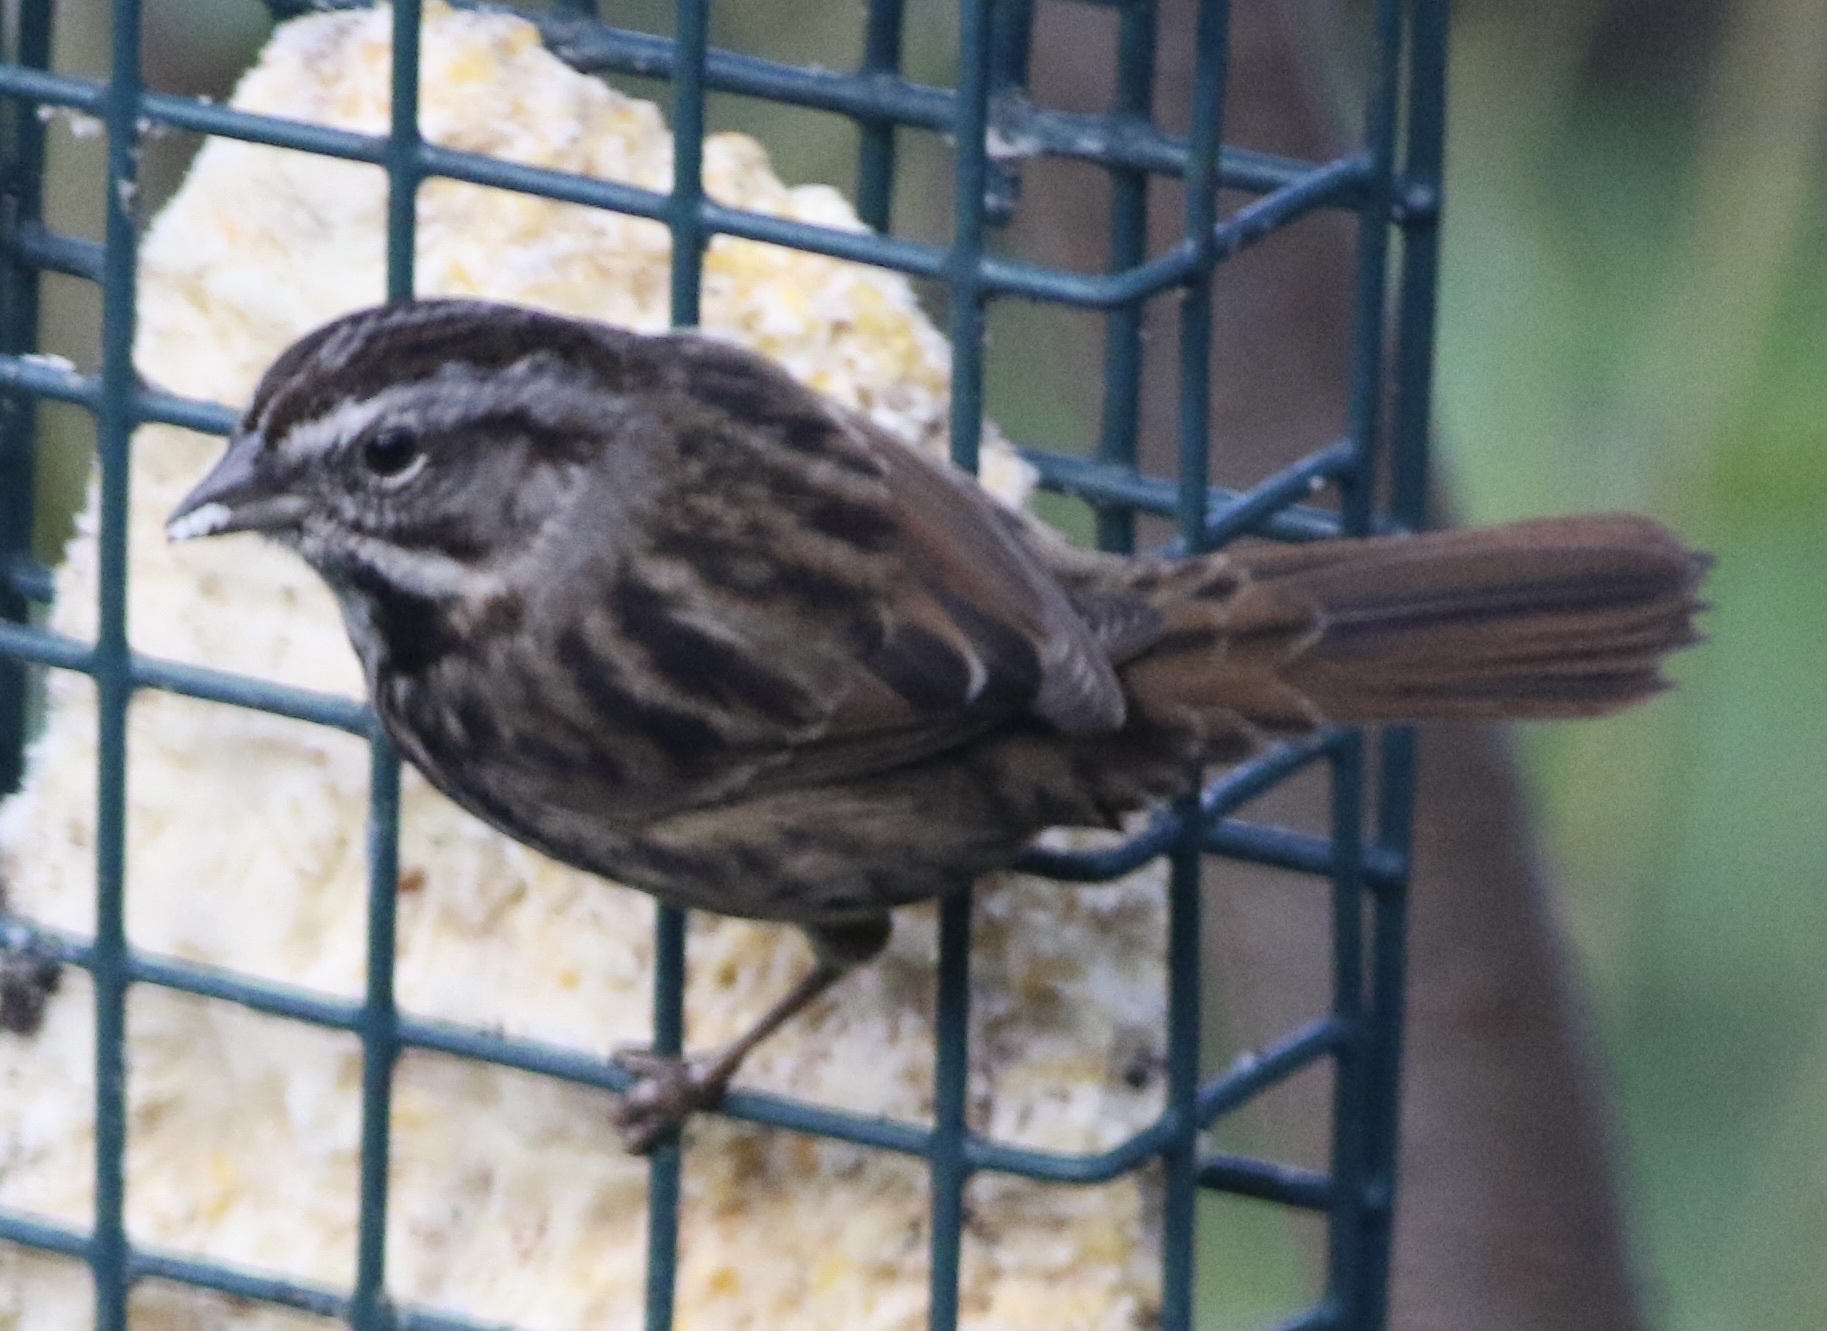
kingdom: Animalia
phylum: Chordata
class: Aves
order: Passeriformes
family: Passerellidae
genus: Melospiza
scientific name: Melospiza melodia
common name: Song sparrow
